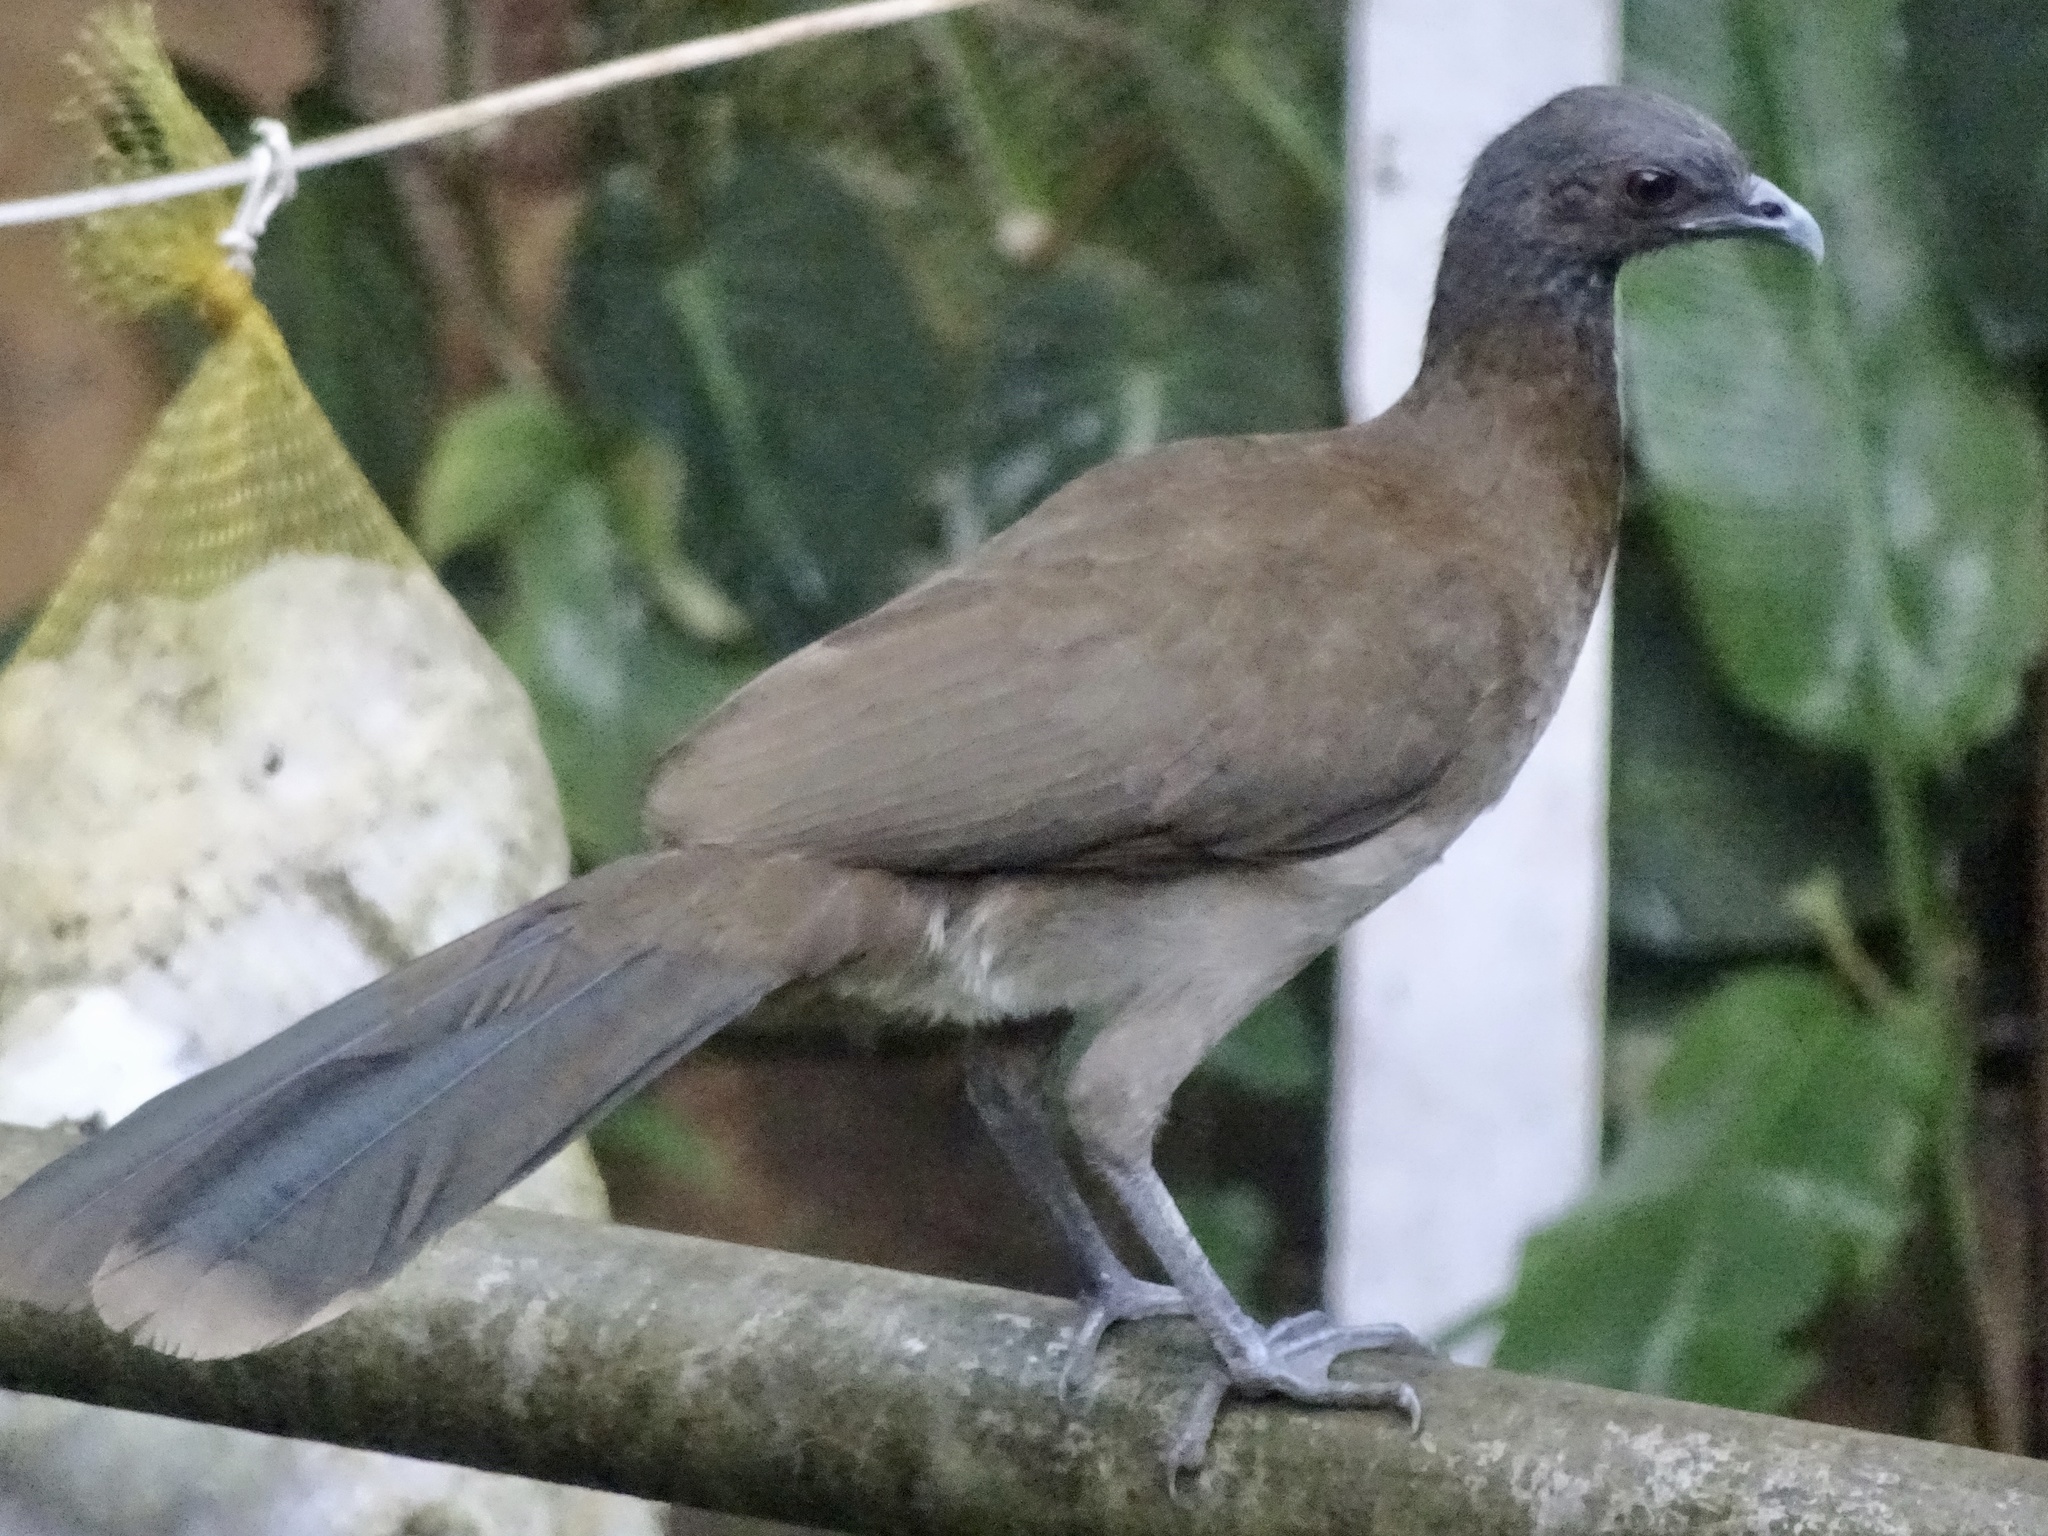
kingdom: Animalia
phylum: Chordata
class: Aves
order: Galliformes
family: Cracidae
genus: Ortalis
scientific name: Ortalis cinereiceps
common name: Grey-headed chachalaca
